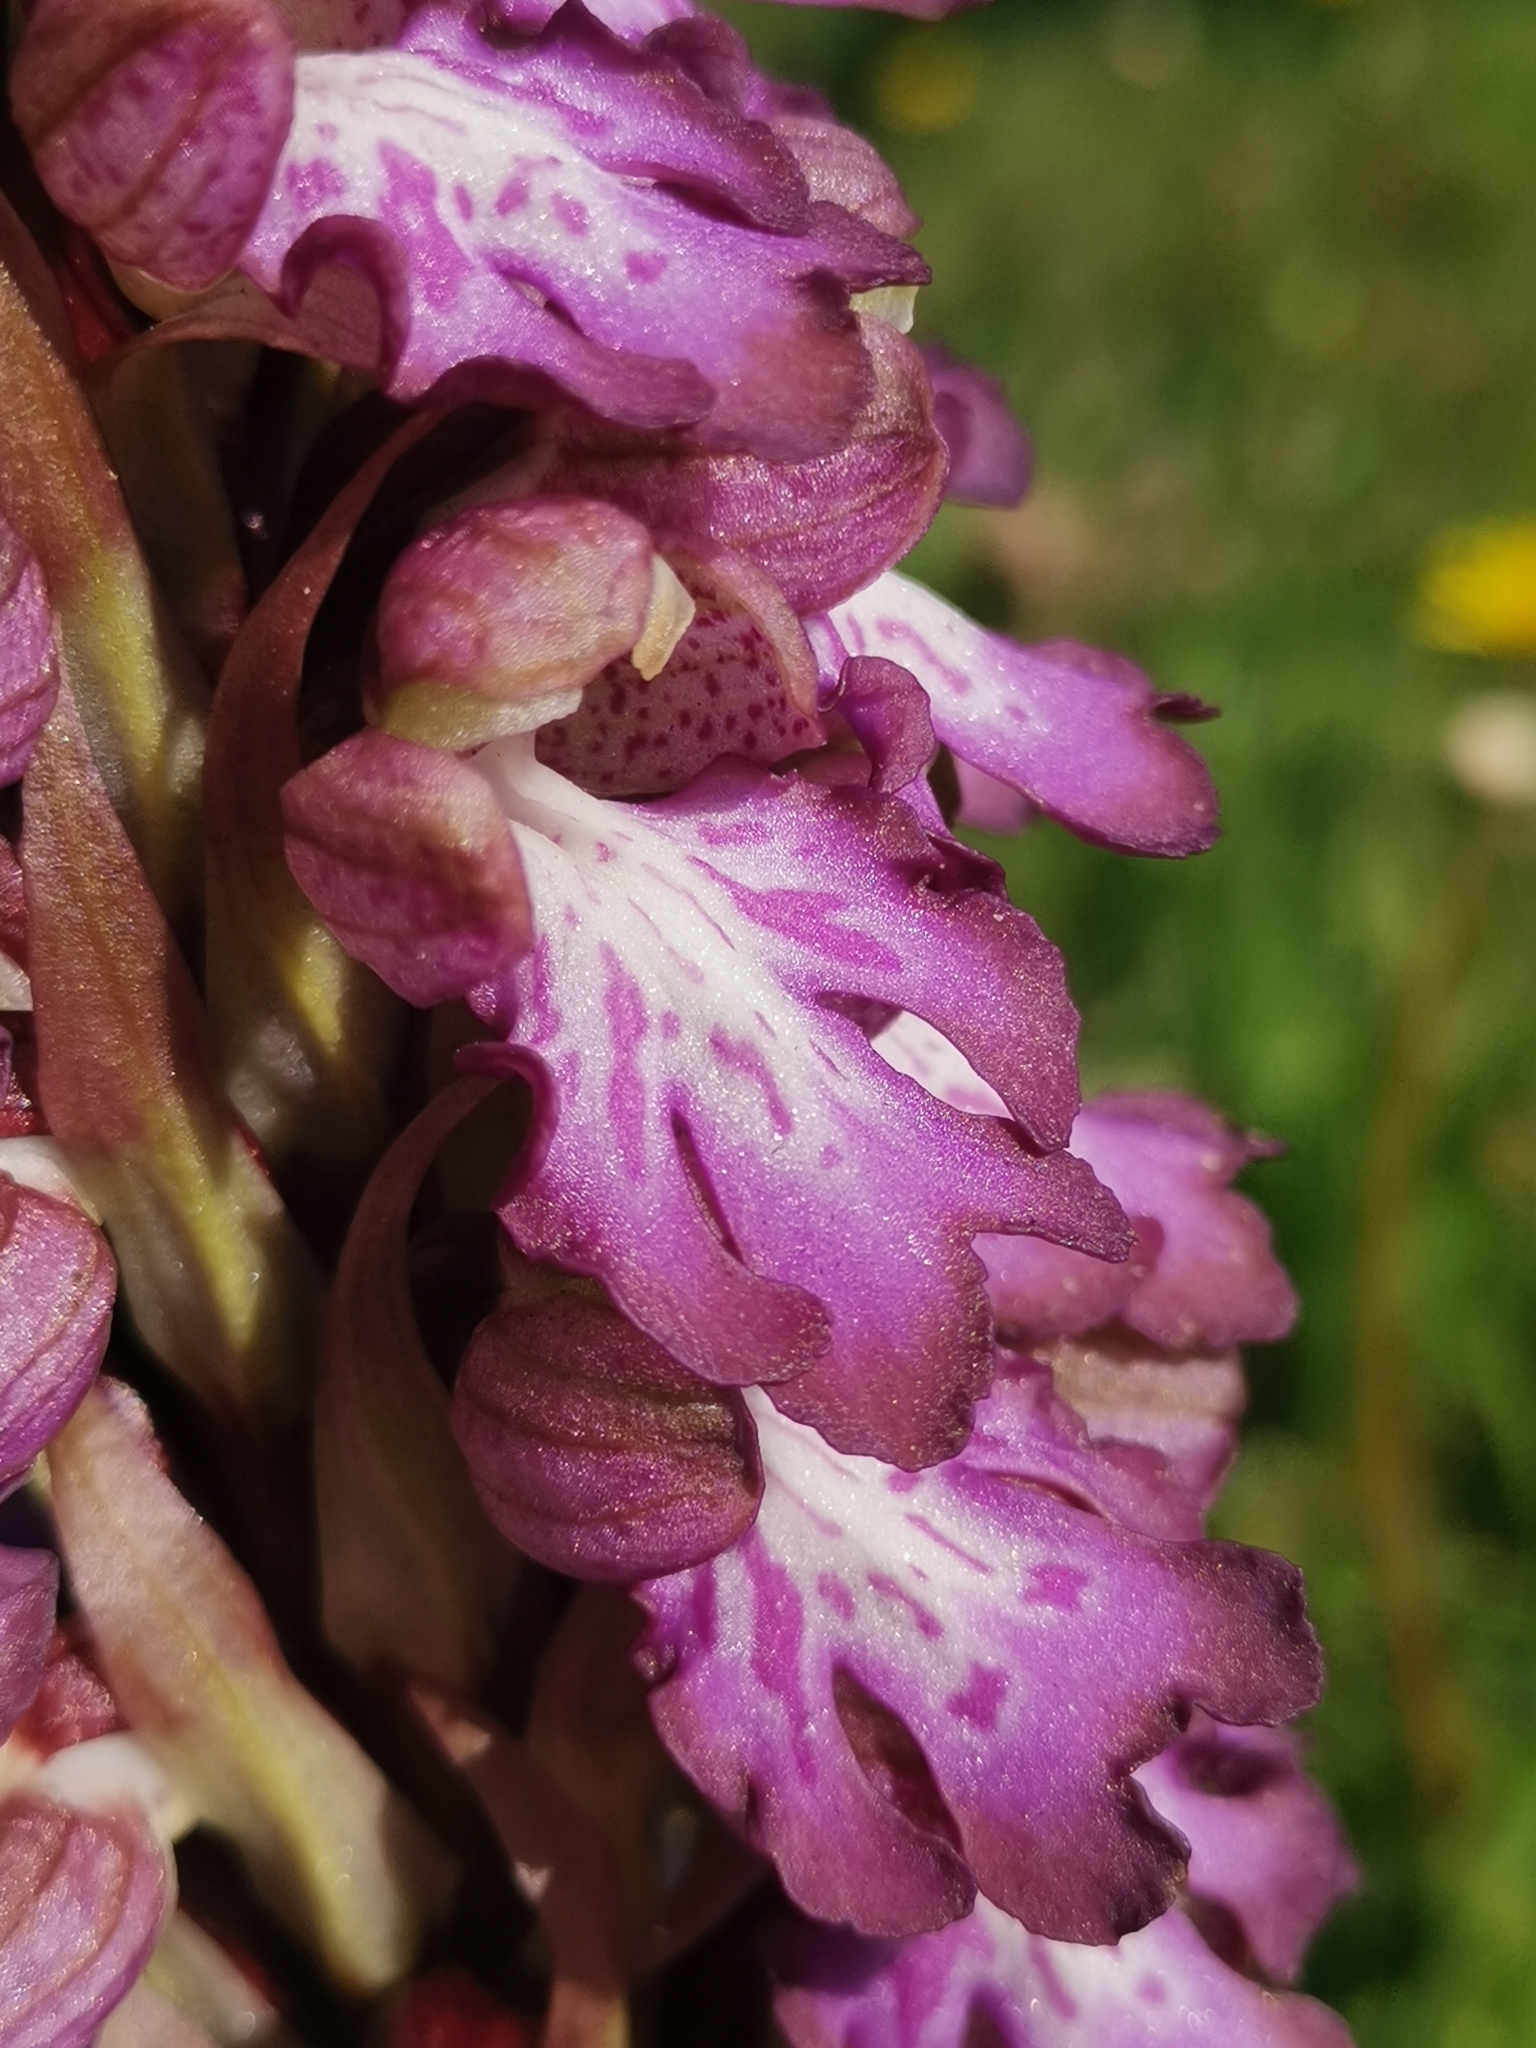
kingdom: Plantae
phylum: Tracheophyta
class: Liliopsida
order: Asparagales
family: Orchidaceae
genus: Himantoglossum
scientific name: Himantoglossum robertianum
